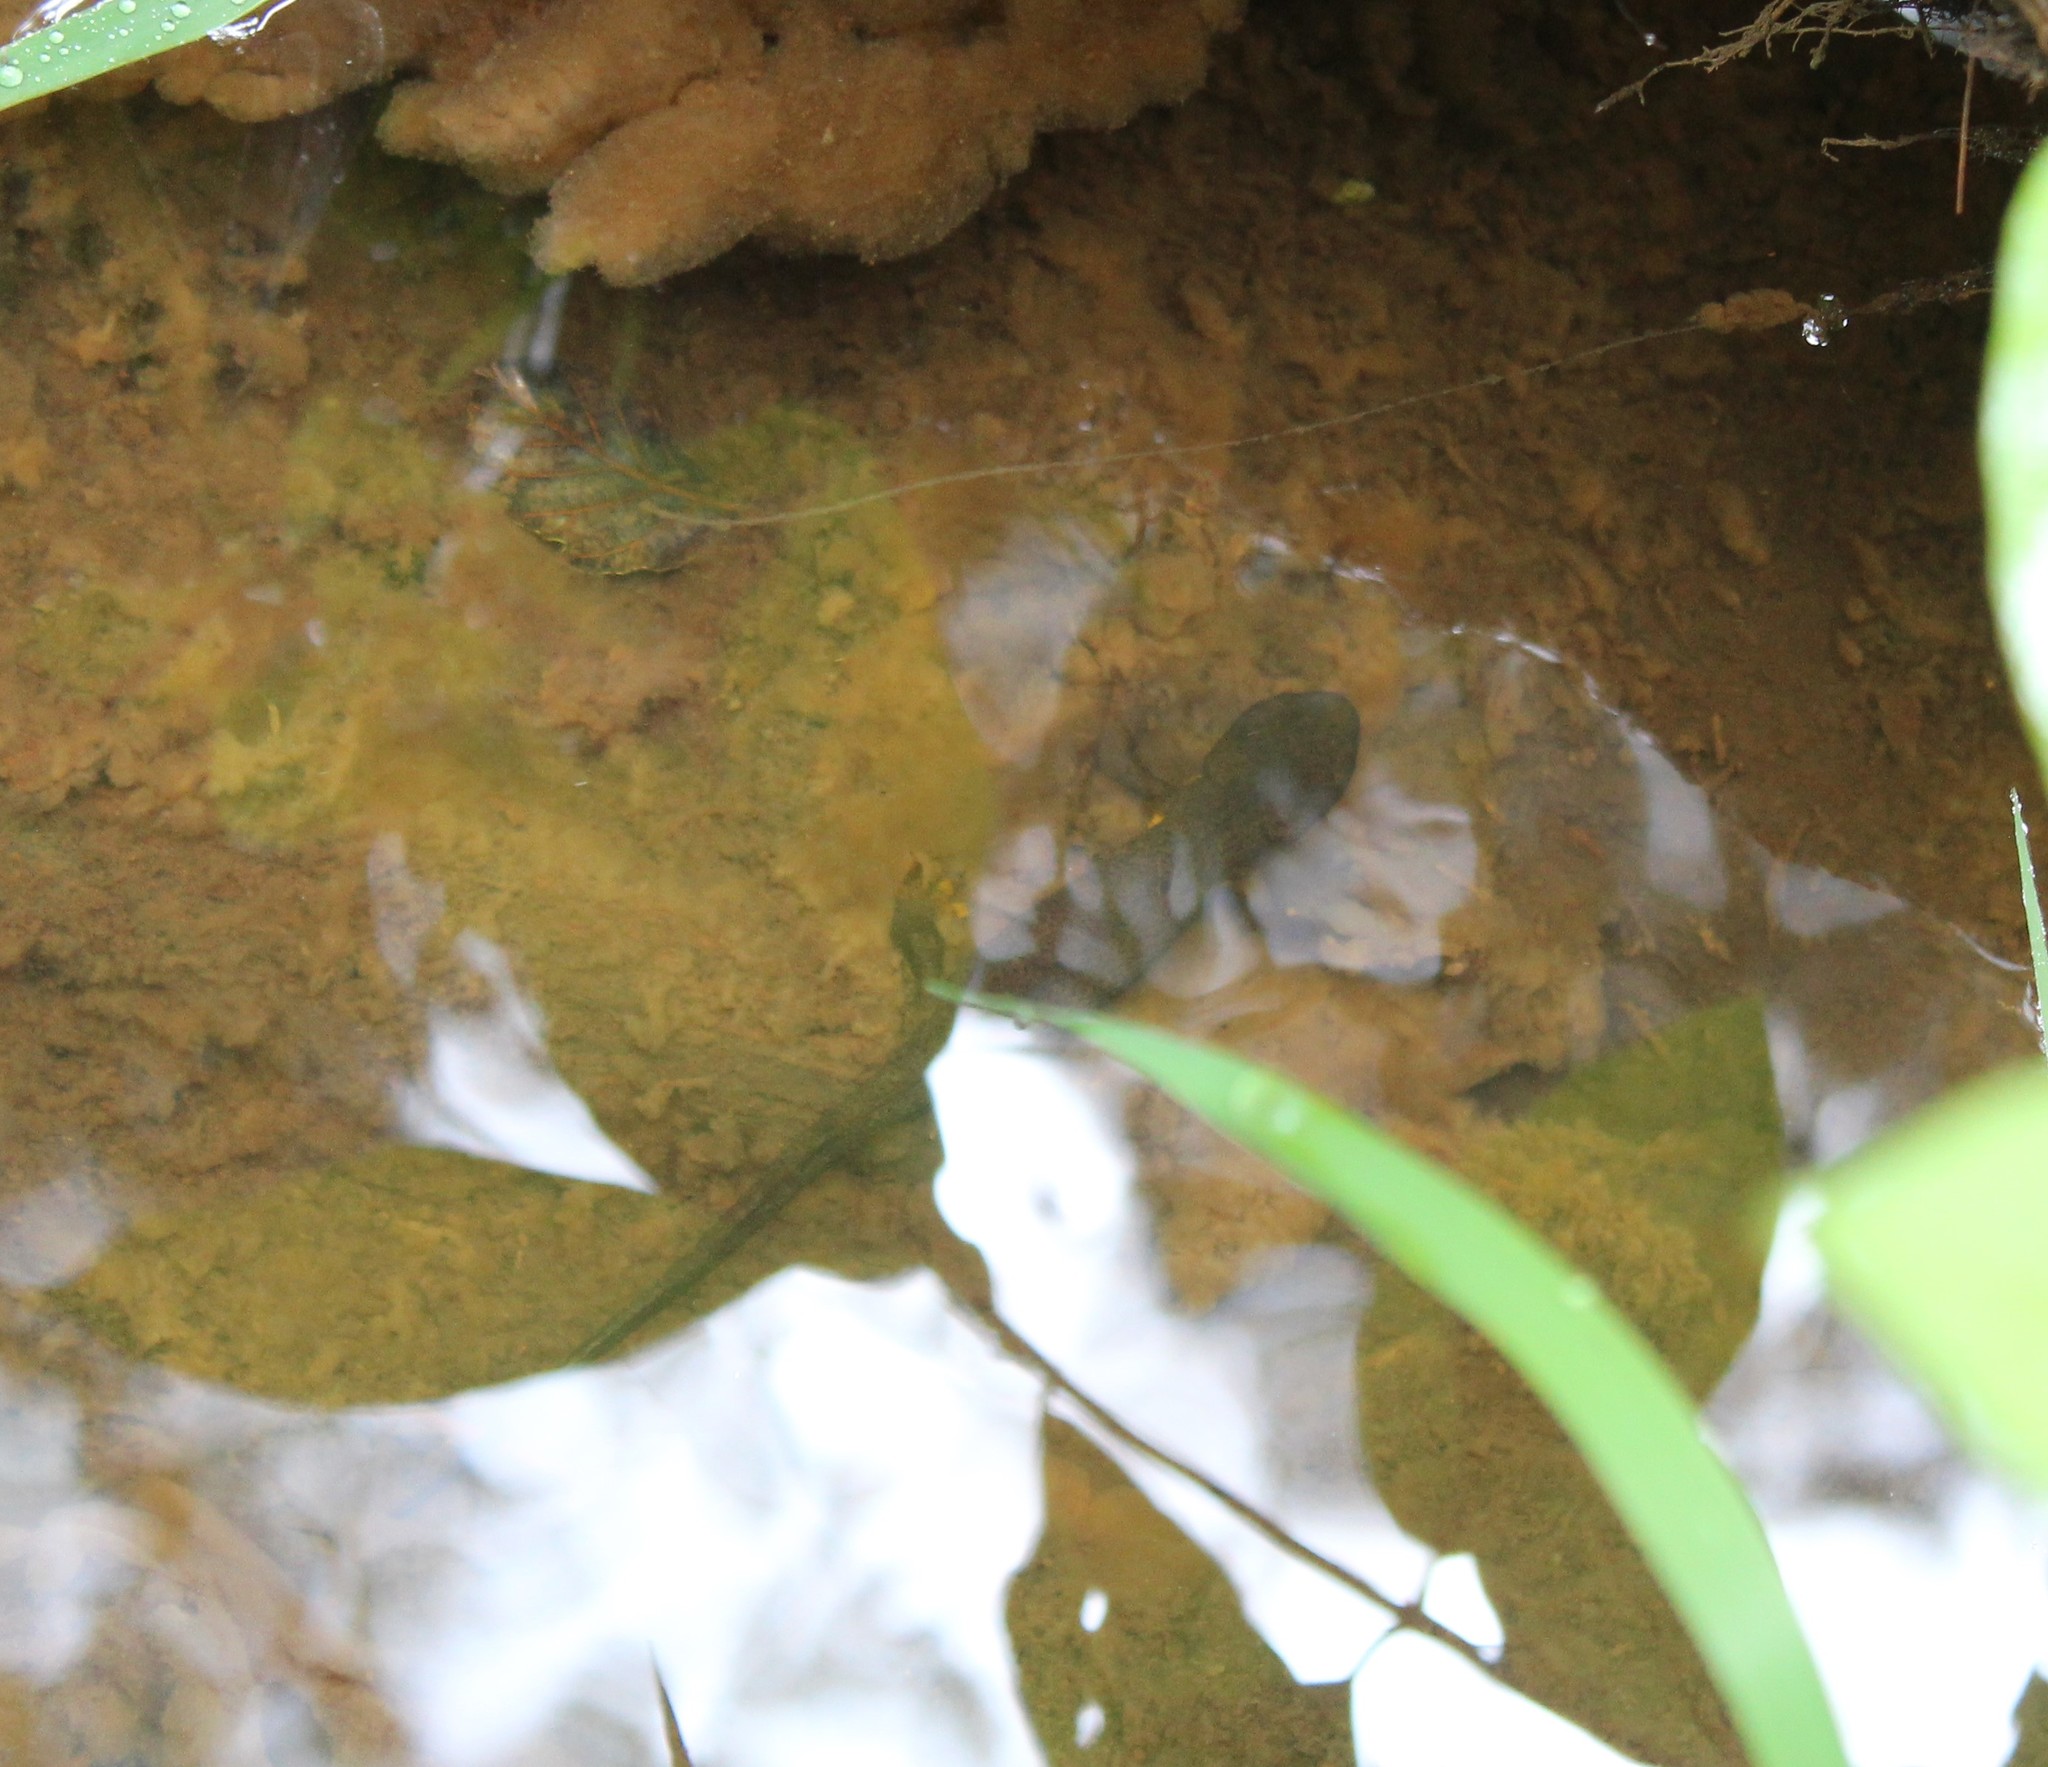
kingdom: Animalia
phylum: Chordata
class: Amphibia
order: Caudata
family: Salamandridae
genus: Taricha
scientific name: Taricha granulosa
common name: Roughskin newt
